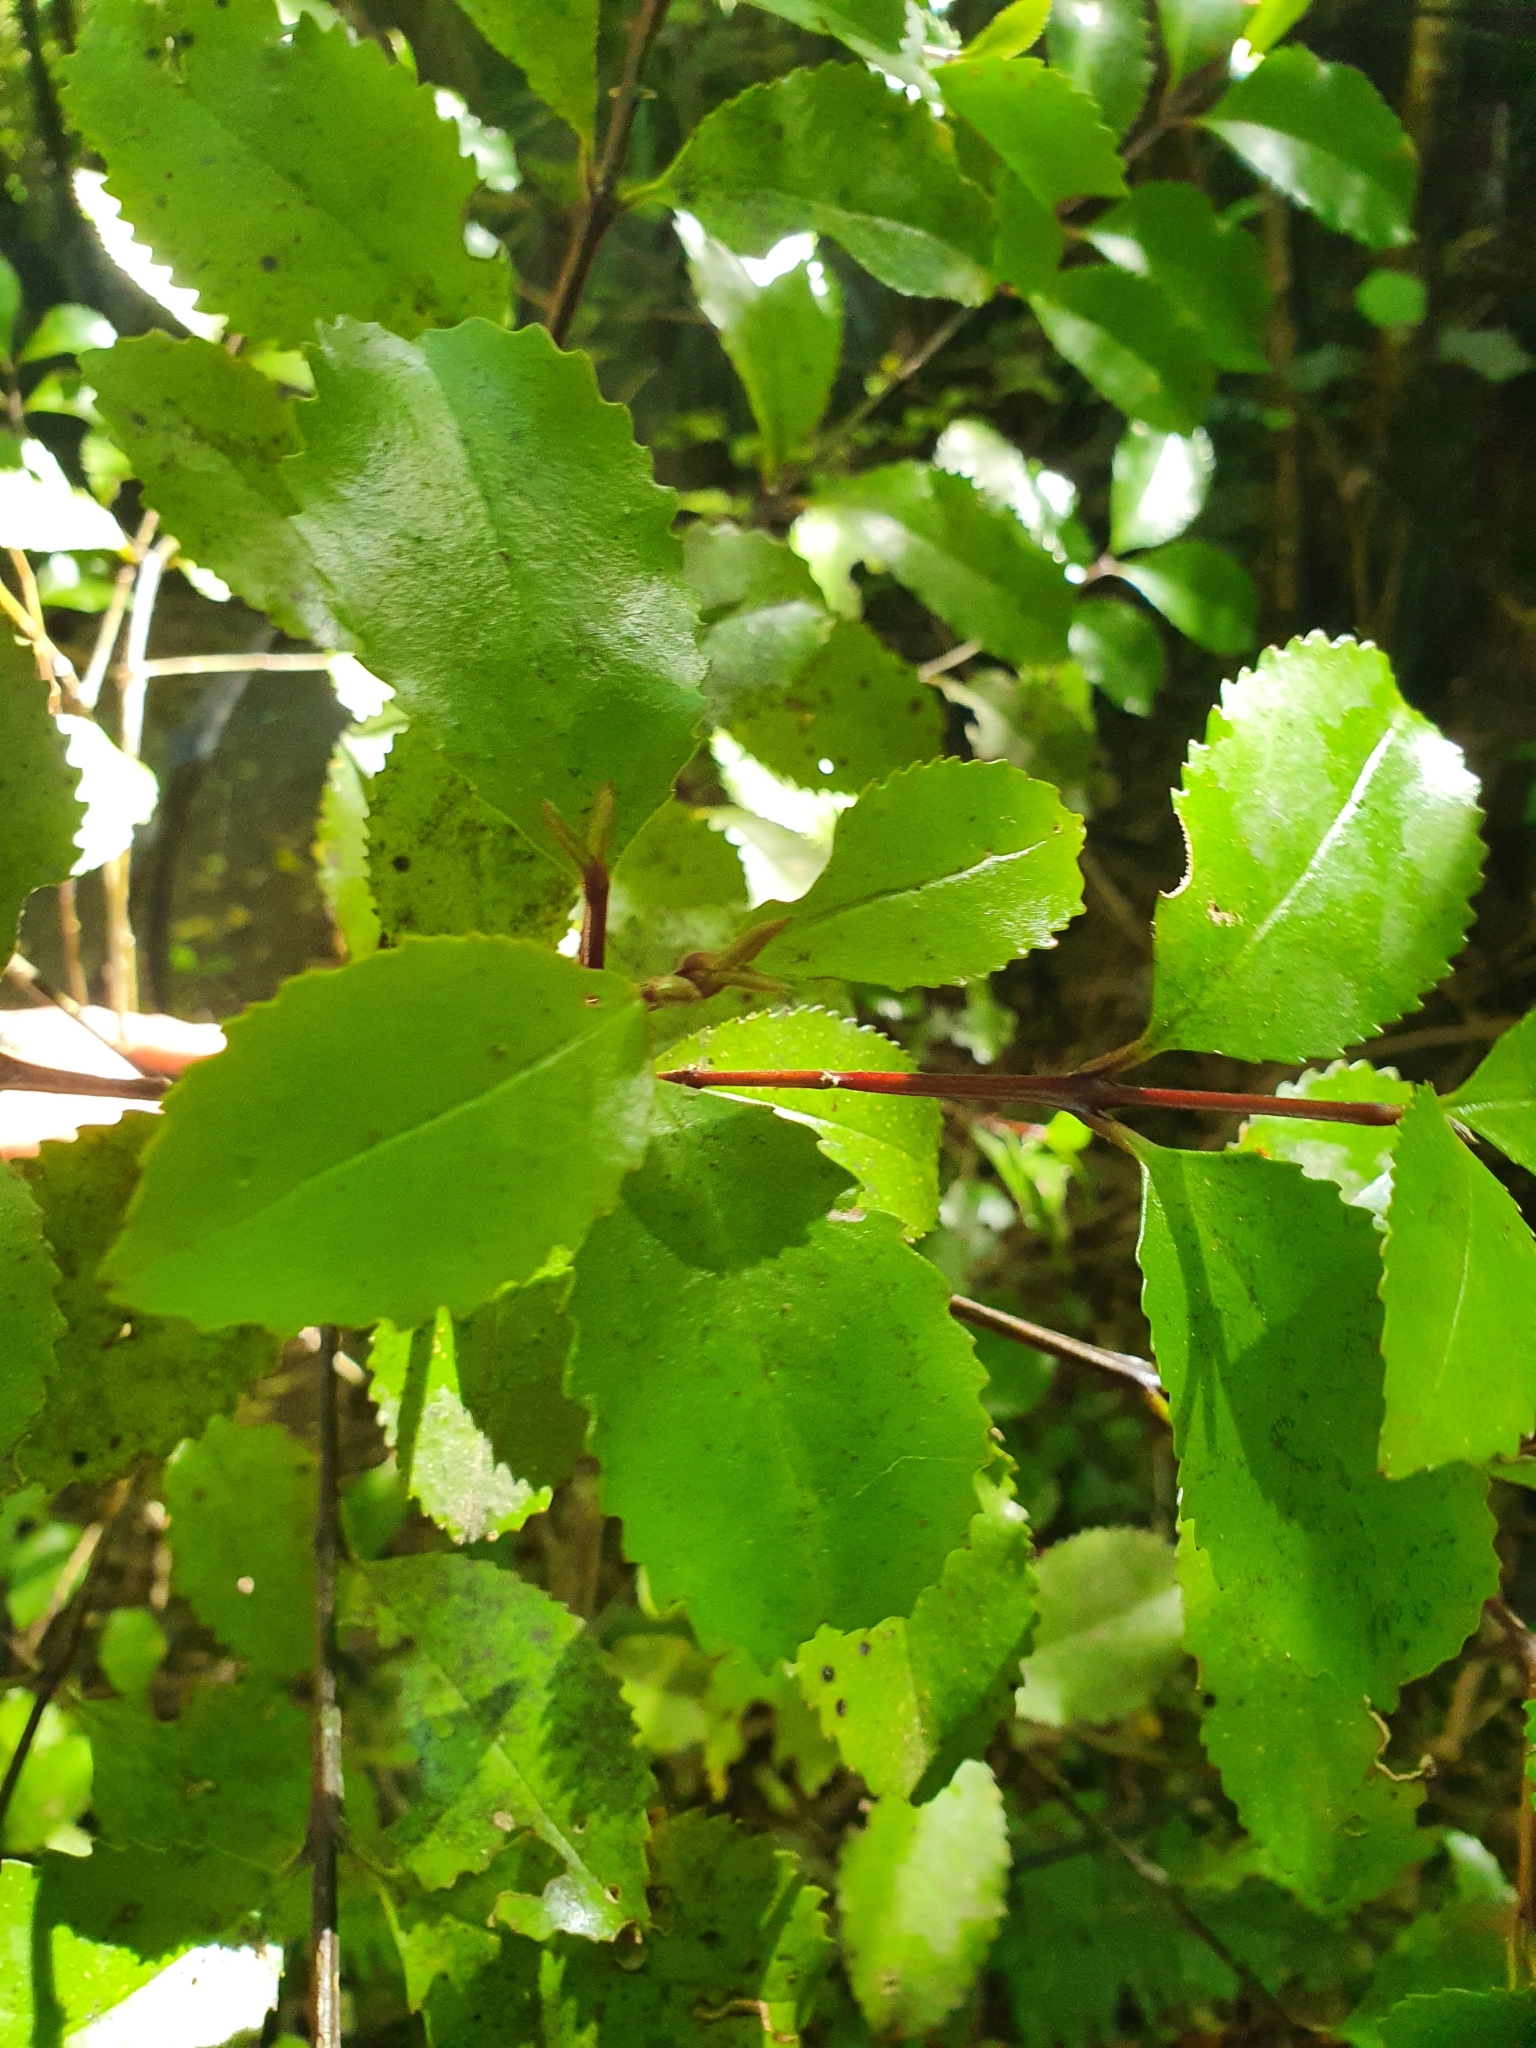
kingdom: Plantae
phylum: Tracheophyta
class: Magnoliopsida
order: Laurales
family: Atherospermataceae
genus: Laurelia
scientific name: Laurelia novae-zelandiae
